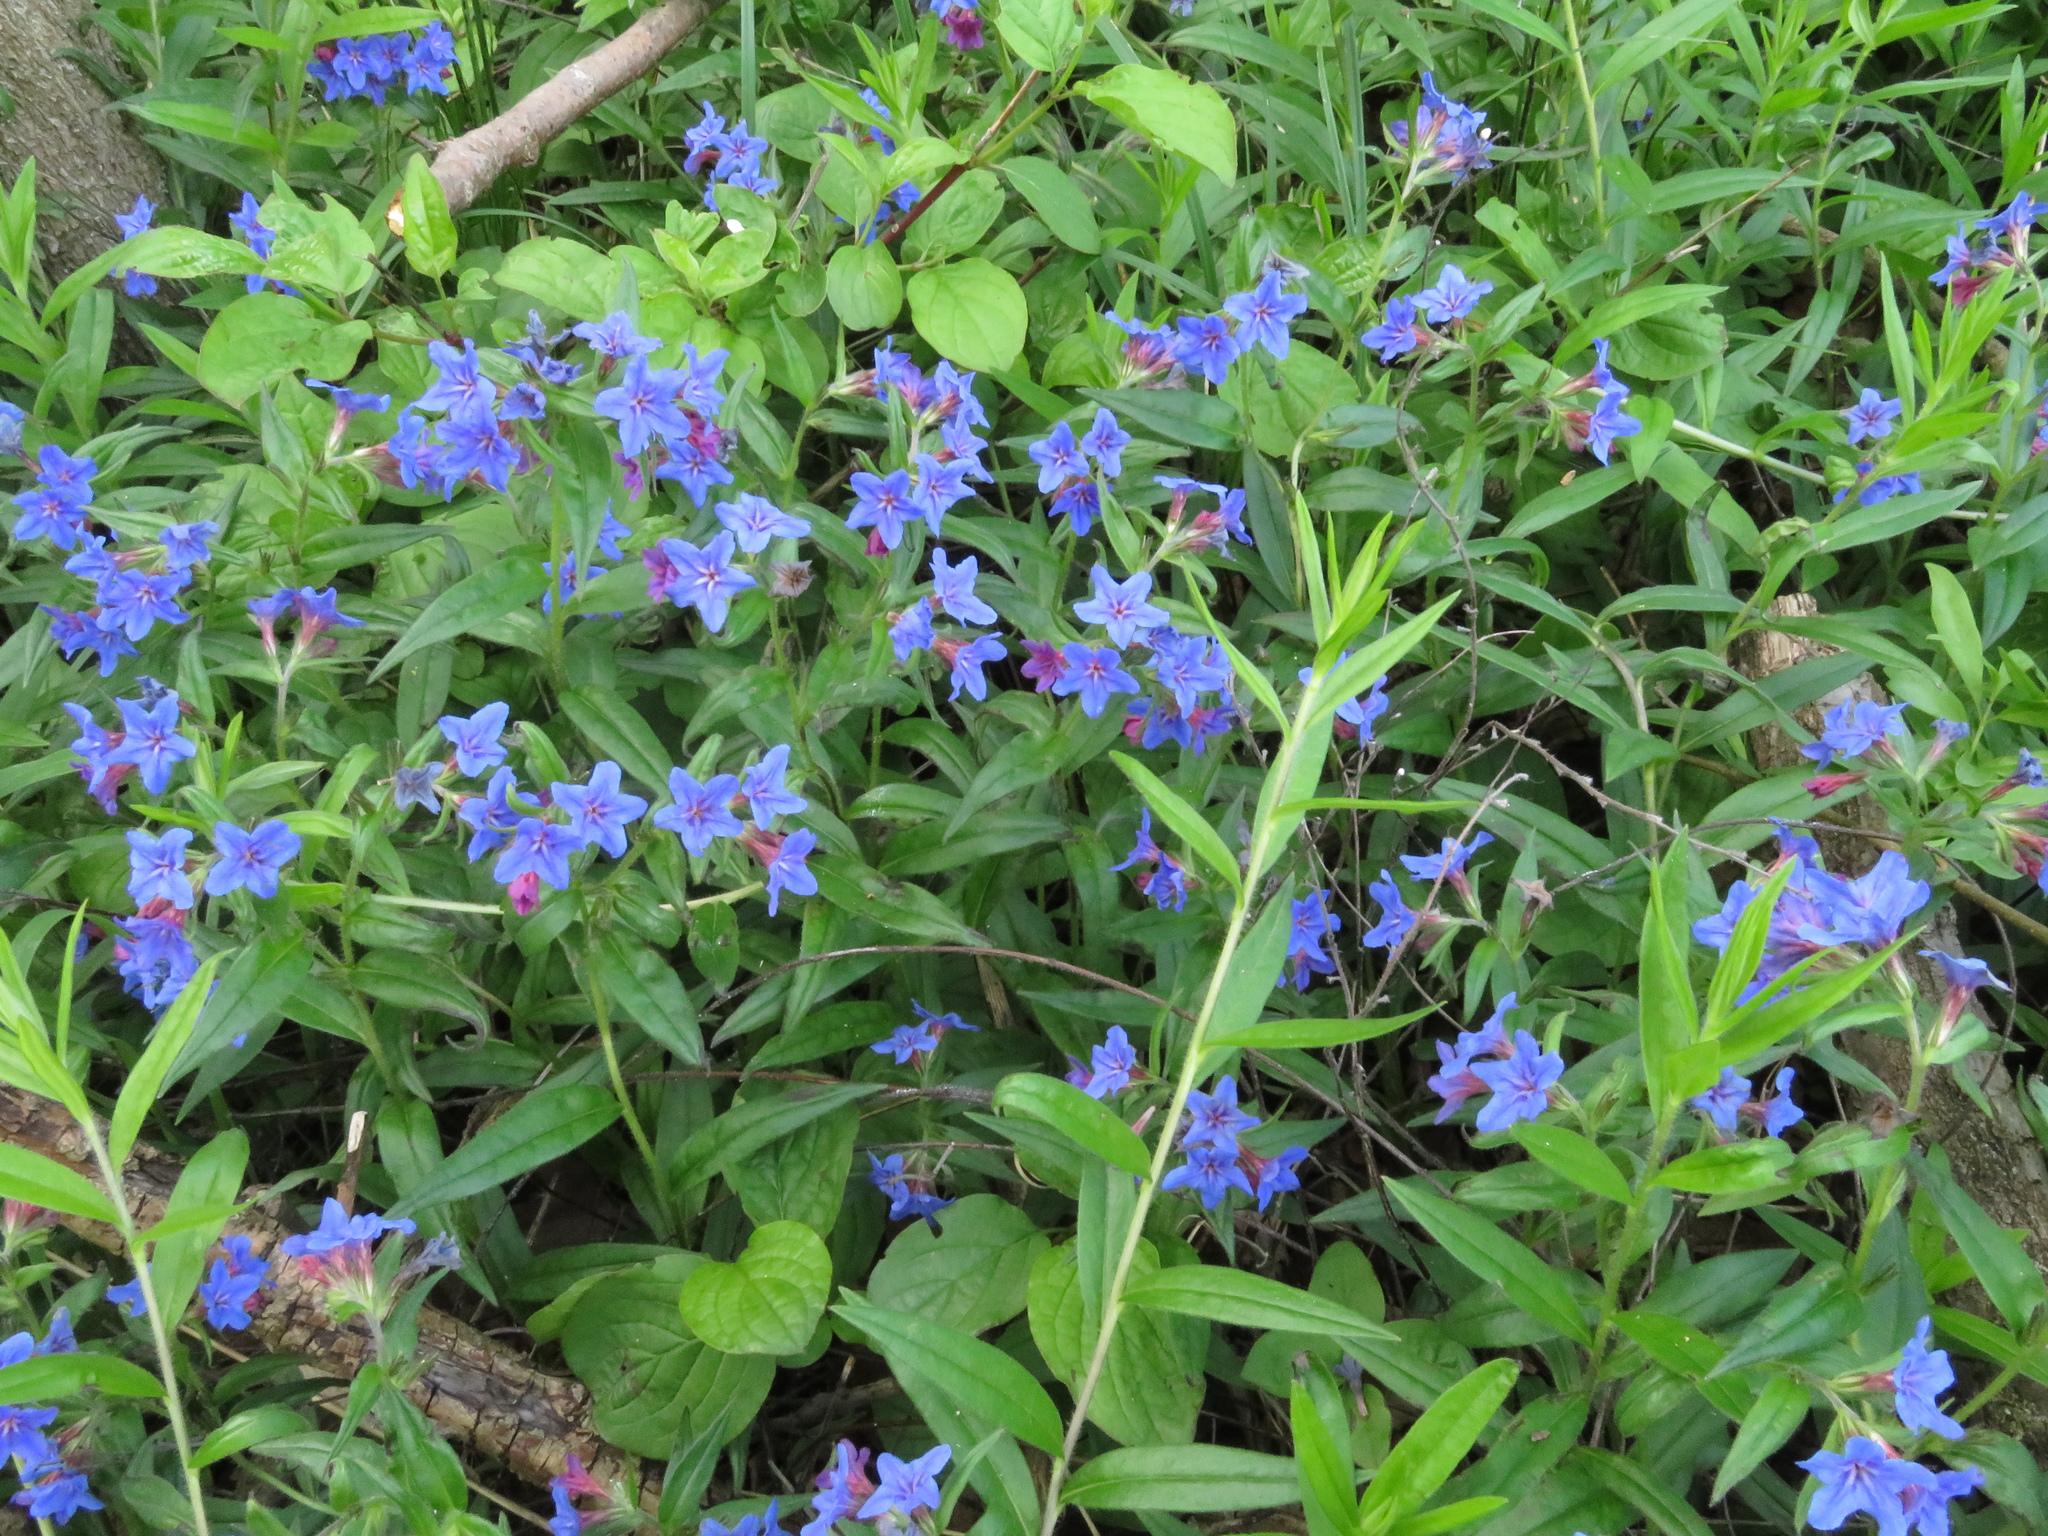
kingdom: Plantae
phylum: Tracheophyta
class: Magnoliopsida
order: Boraginales
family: Boraginaceae
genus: Aegonychon
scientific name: Aegonychon purpurocaeruleum
